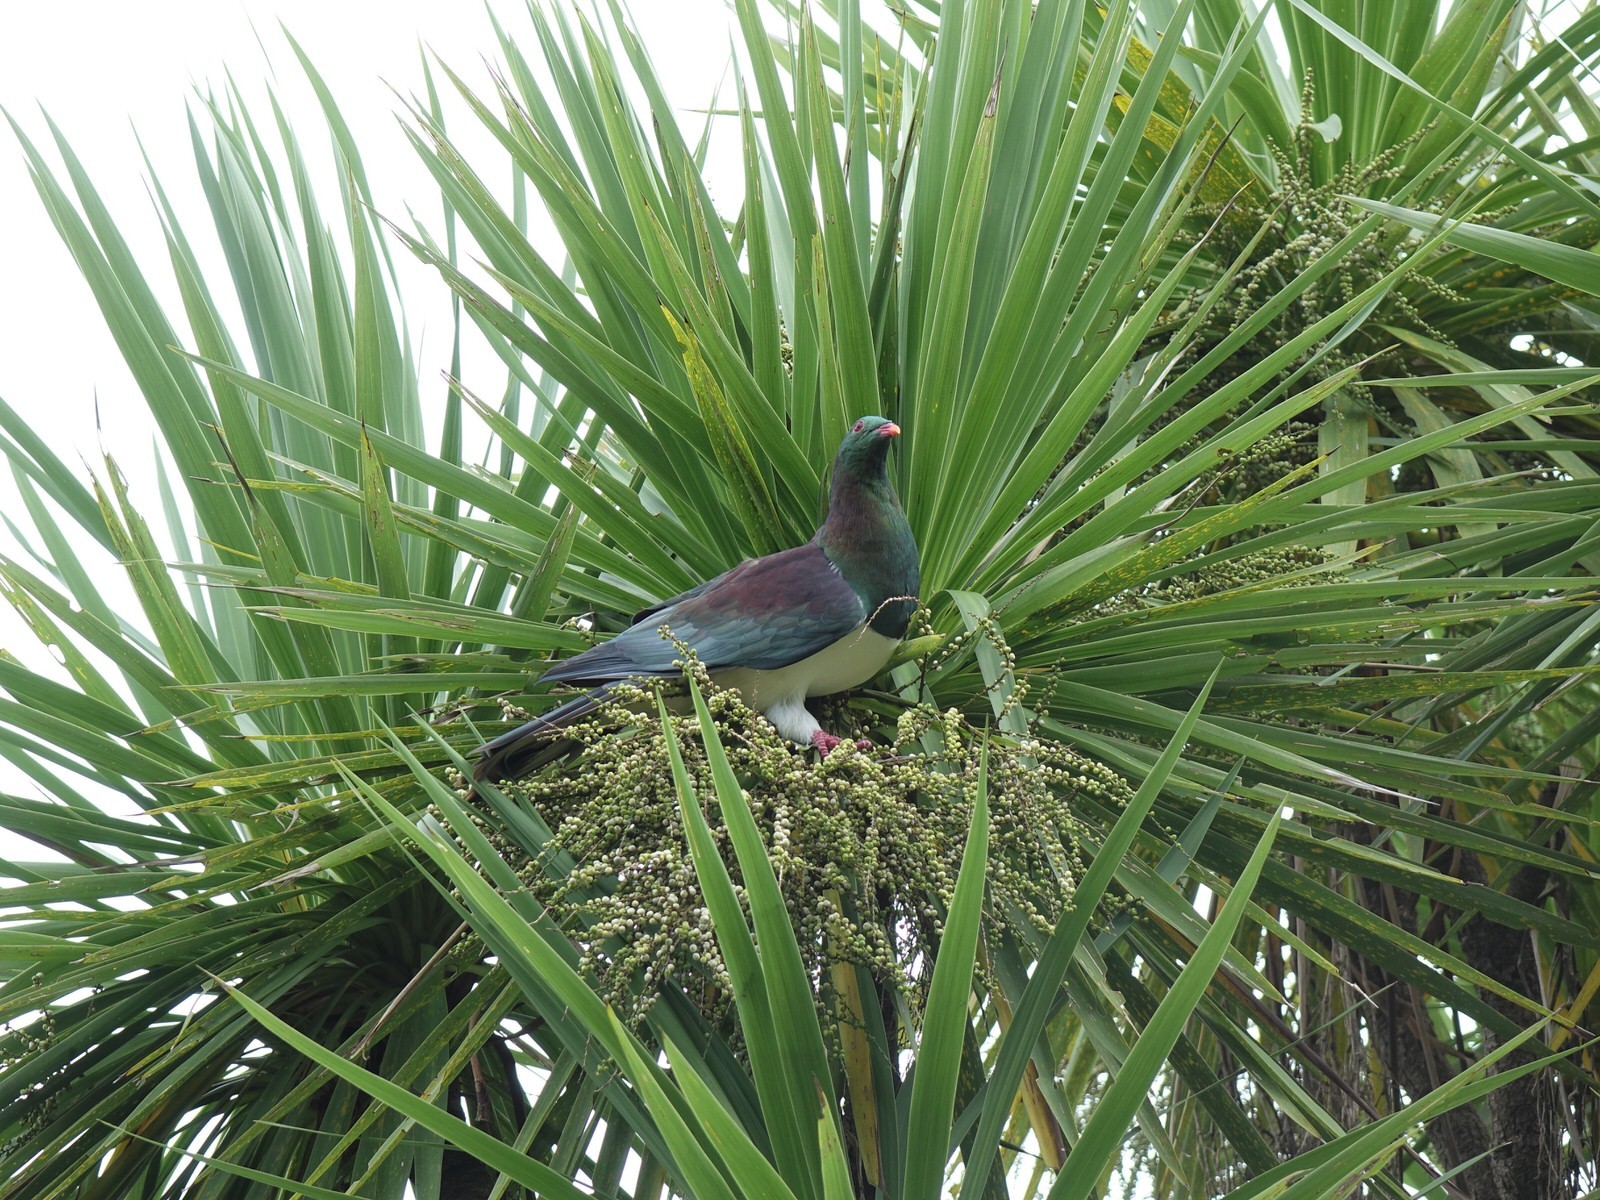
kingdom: Animalia
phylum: Chordata
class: Aves
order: Columbiformes
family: Columbidae
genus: Hemiphaga
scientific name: Hemiphaga novaeseelandiae
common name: New zealand pigeon
